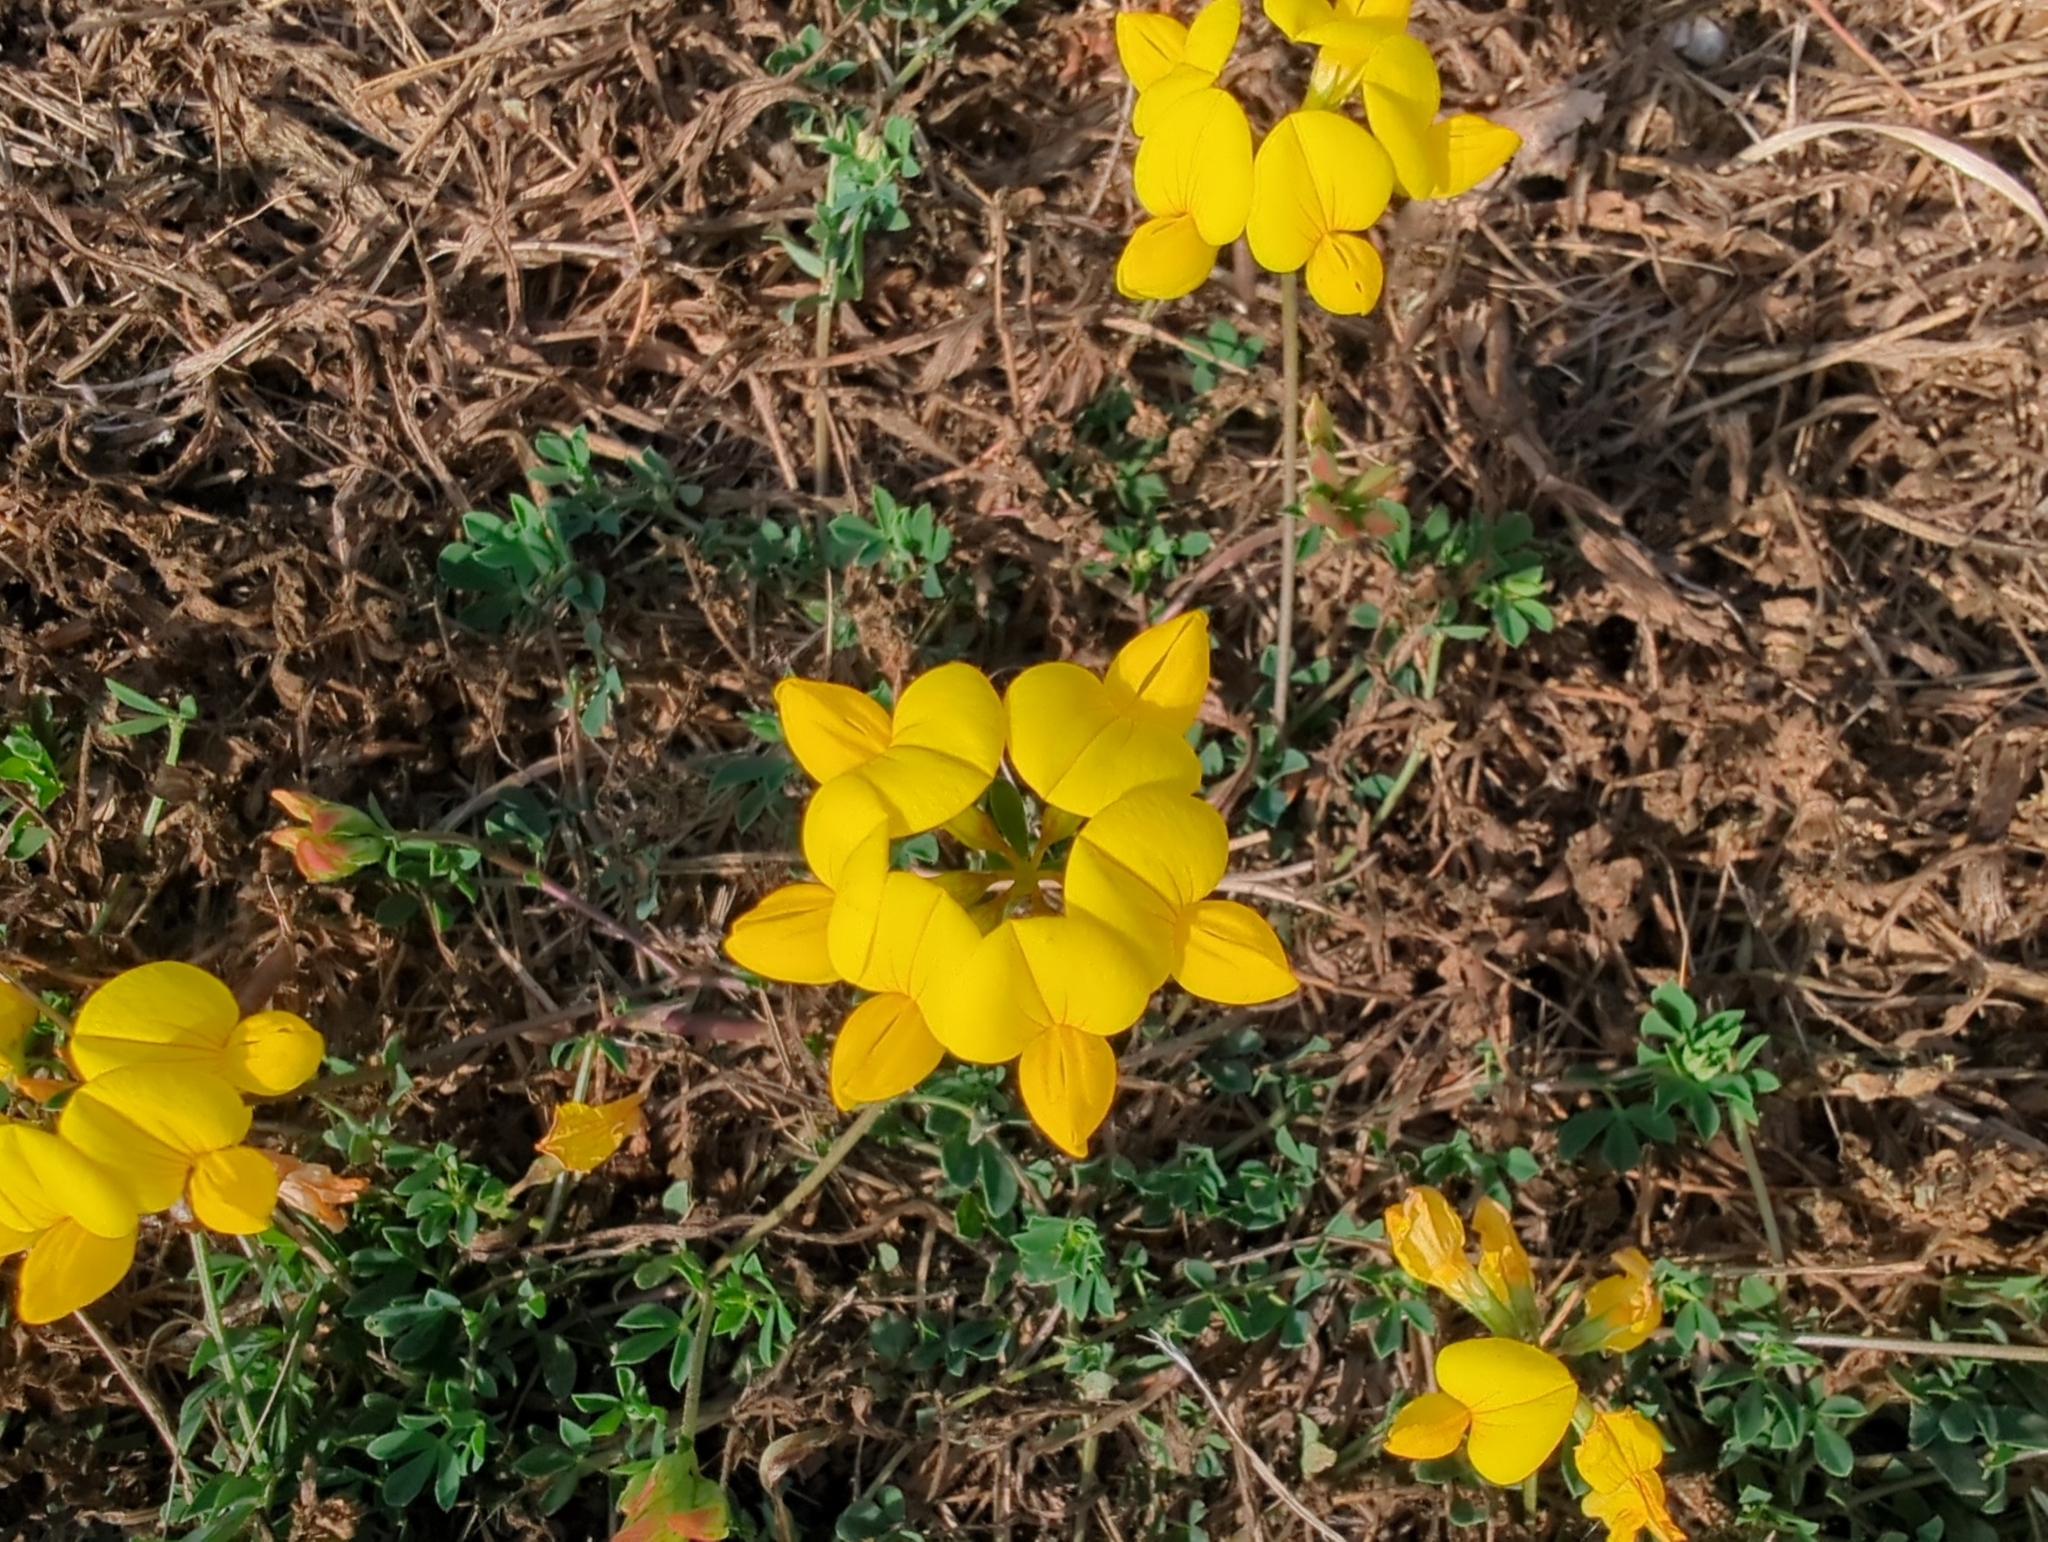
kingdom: Plantae
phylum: Tracheophyta
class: Magnoliopsida
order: Fabales
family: Fabaceae
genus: Lotus
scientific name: Lotus corniculatus
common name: Common bird's-foot-trefoil
